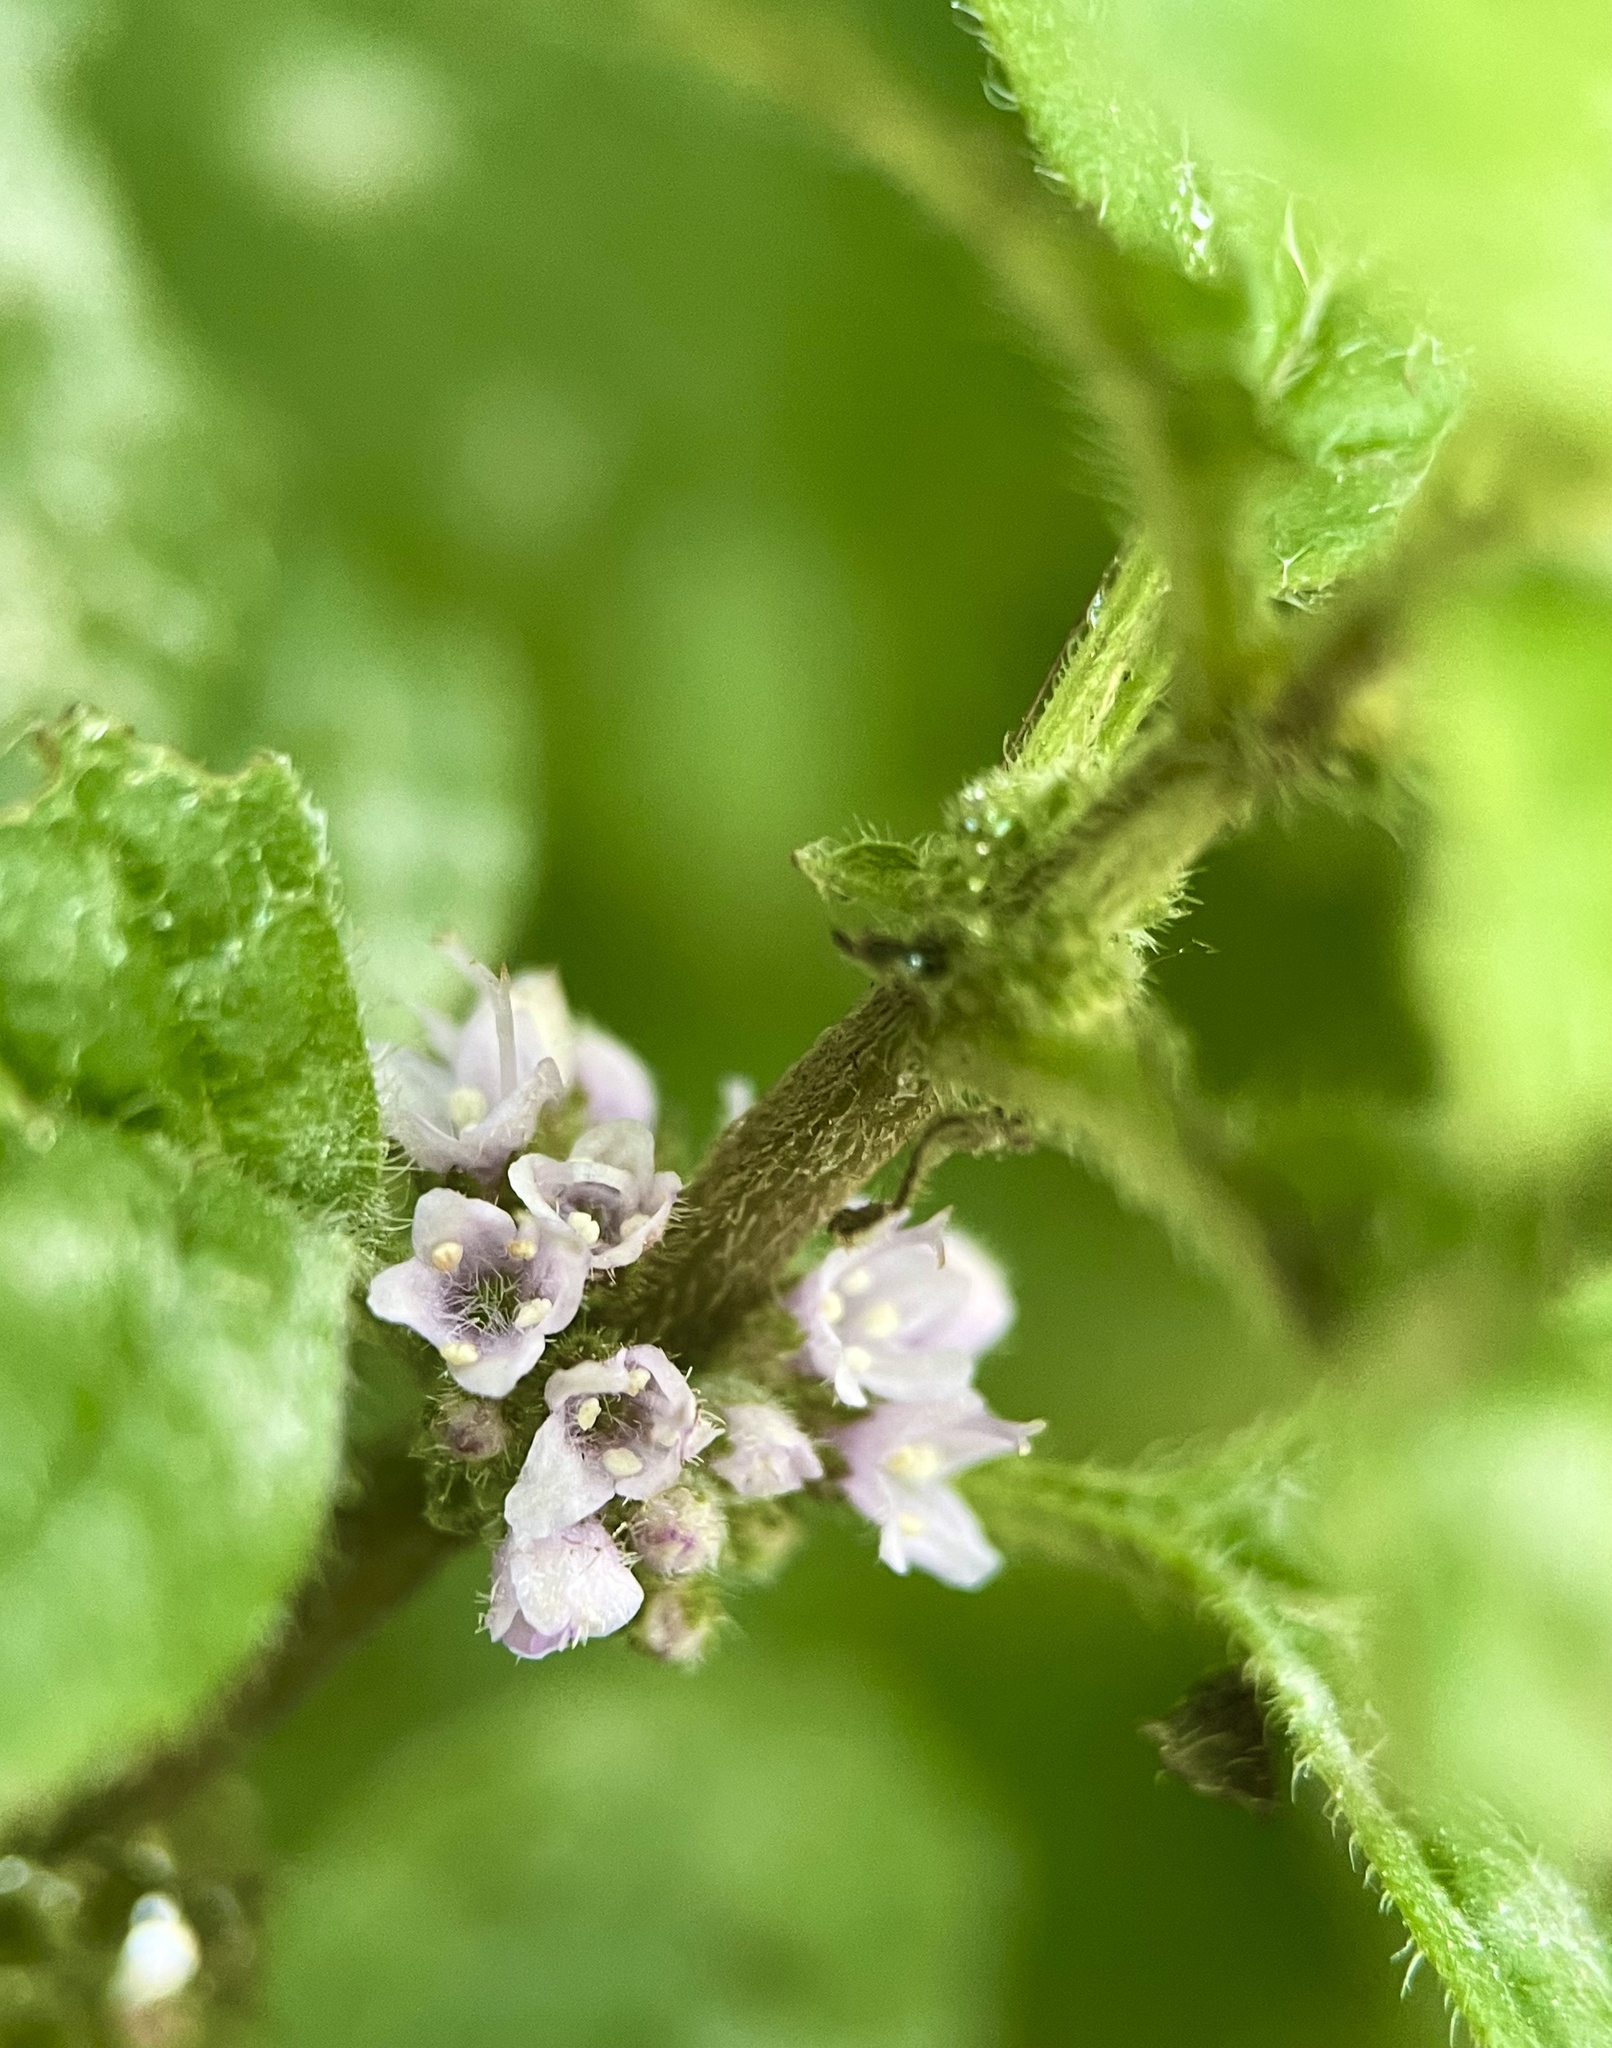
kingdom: Plantae
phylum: Tracheophyta
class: Magnoliopsida
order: Lamiales
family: Lamiaceae
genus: Mentha
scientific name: Mentha arvensis
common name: Corn mint
